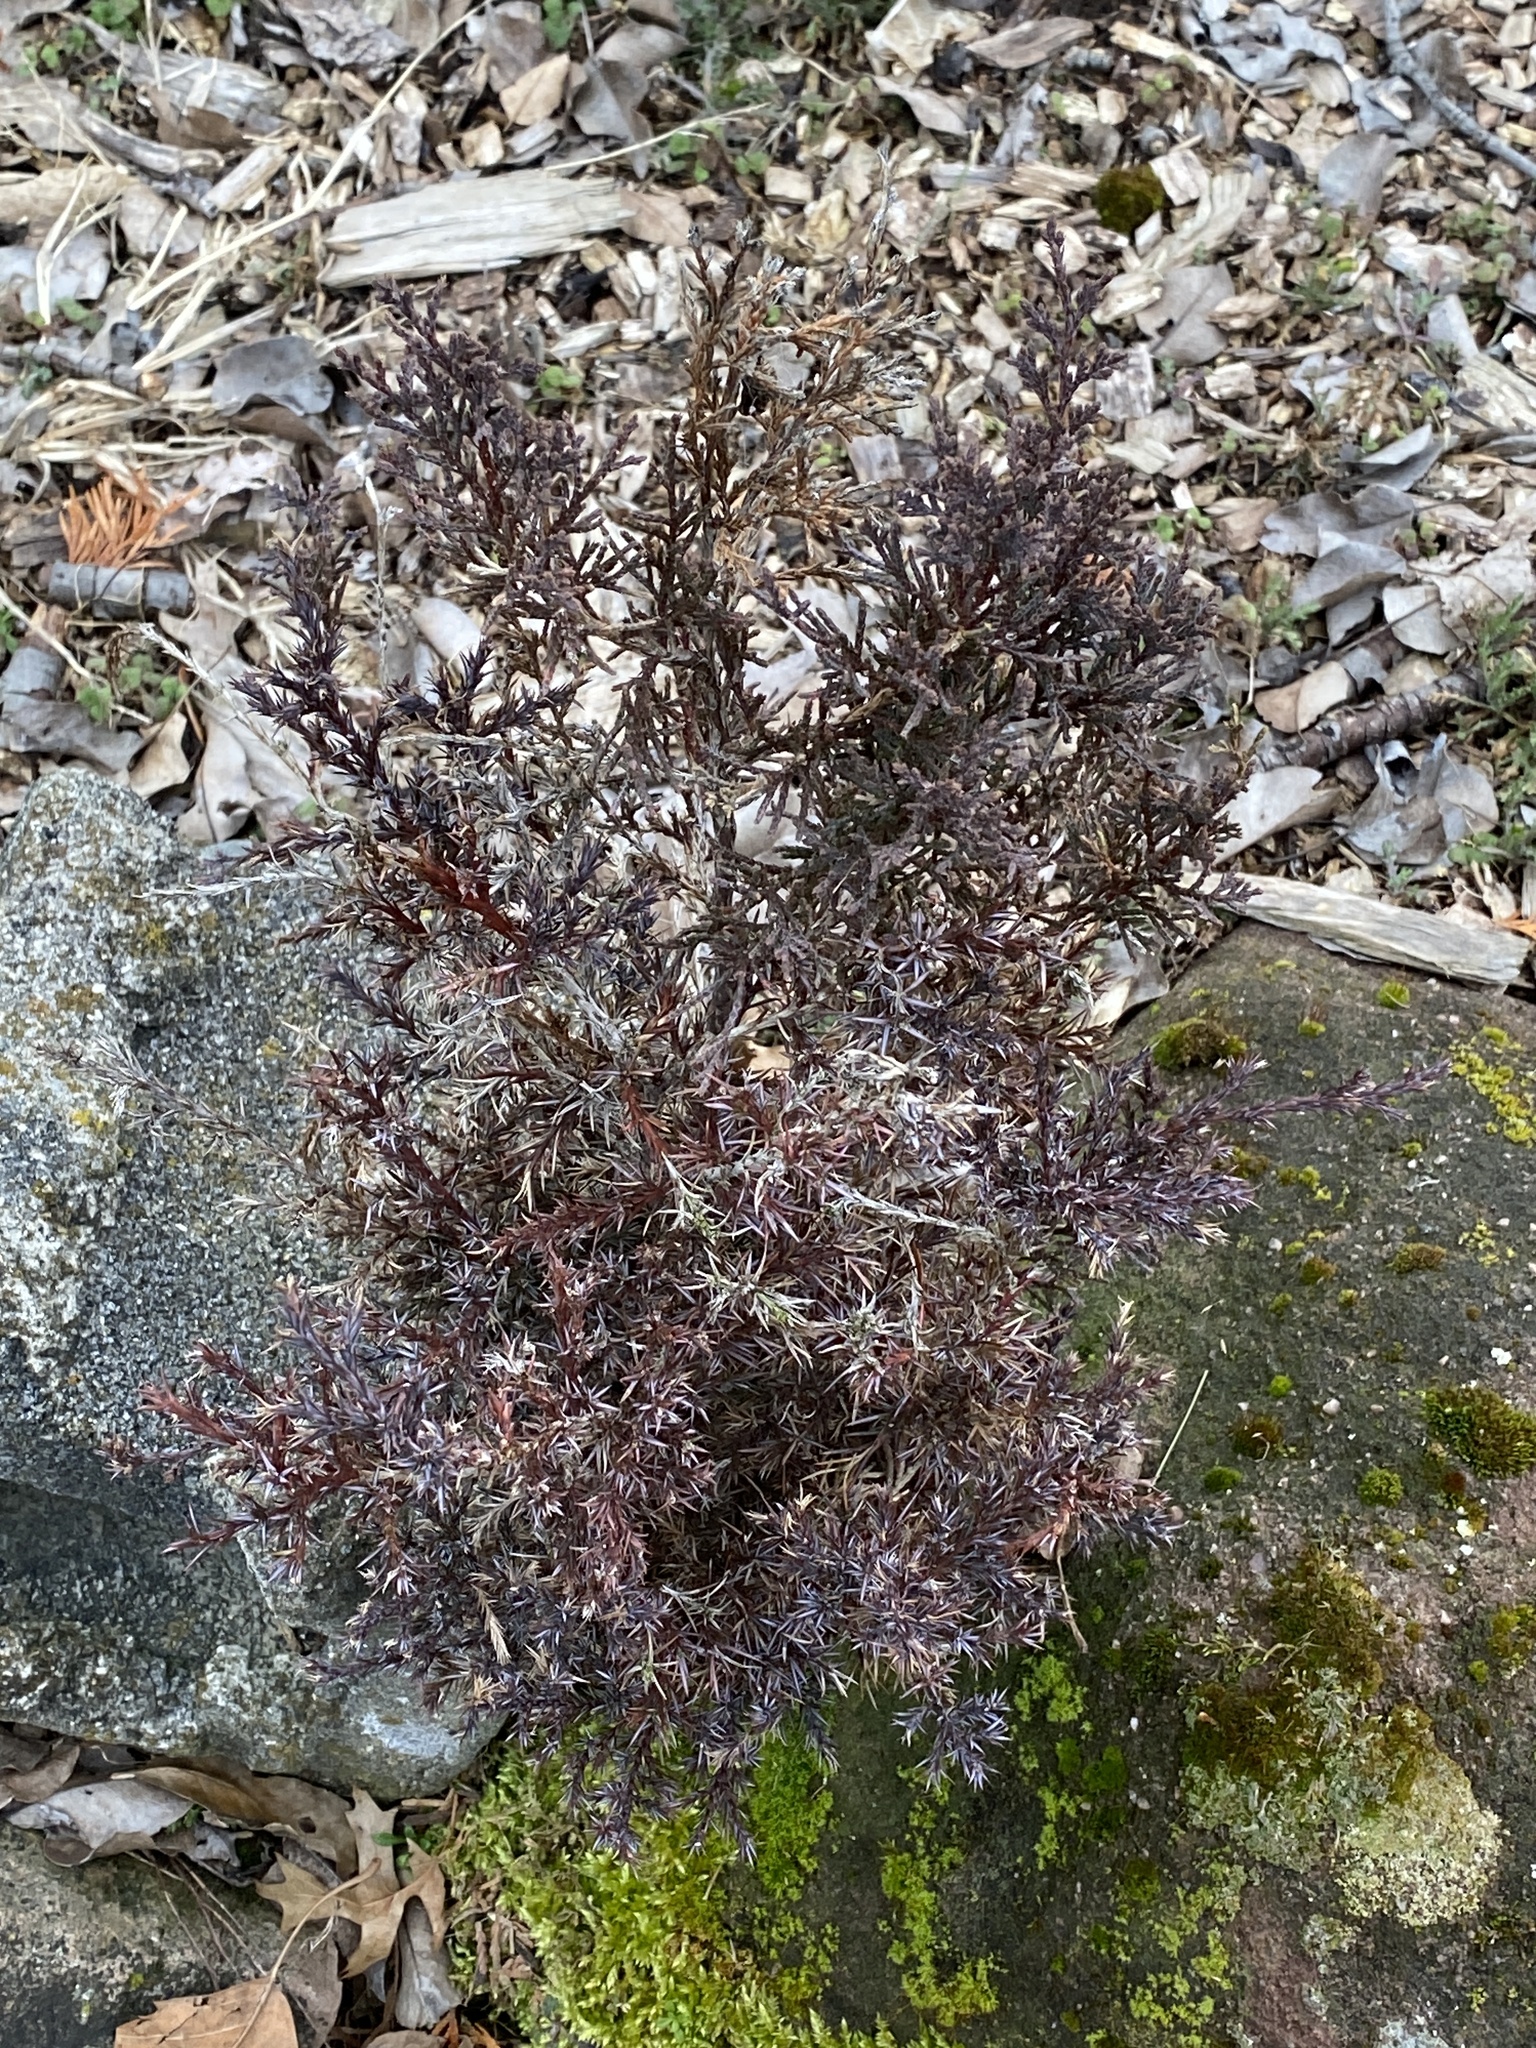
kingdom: Plantae
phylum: Tracheophyta
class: Pinopsida
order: Pinales
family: Cupressaceae
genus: Juniperus
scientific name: Juniperus virginiana
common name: Red juniper
